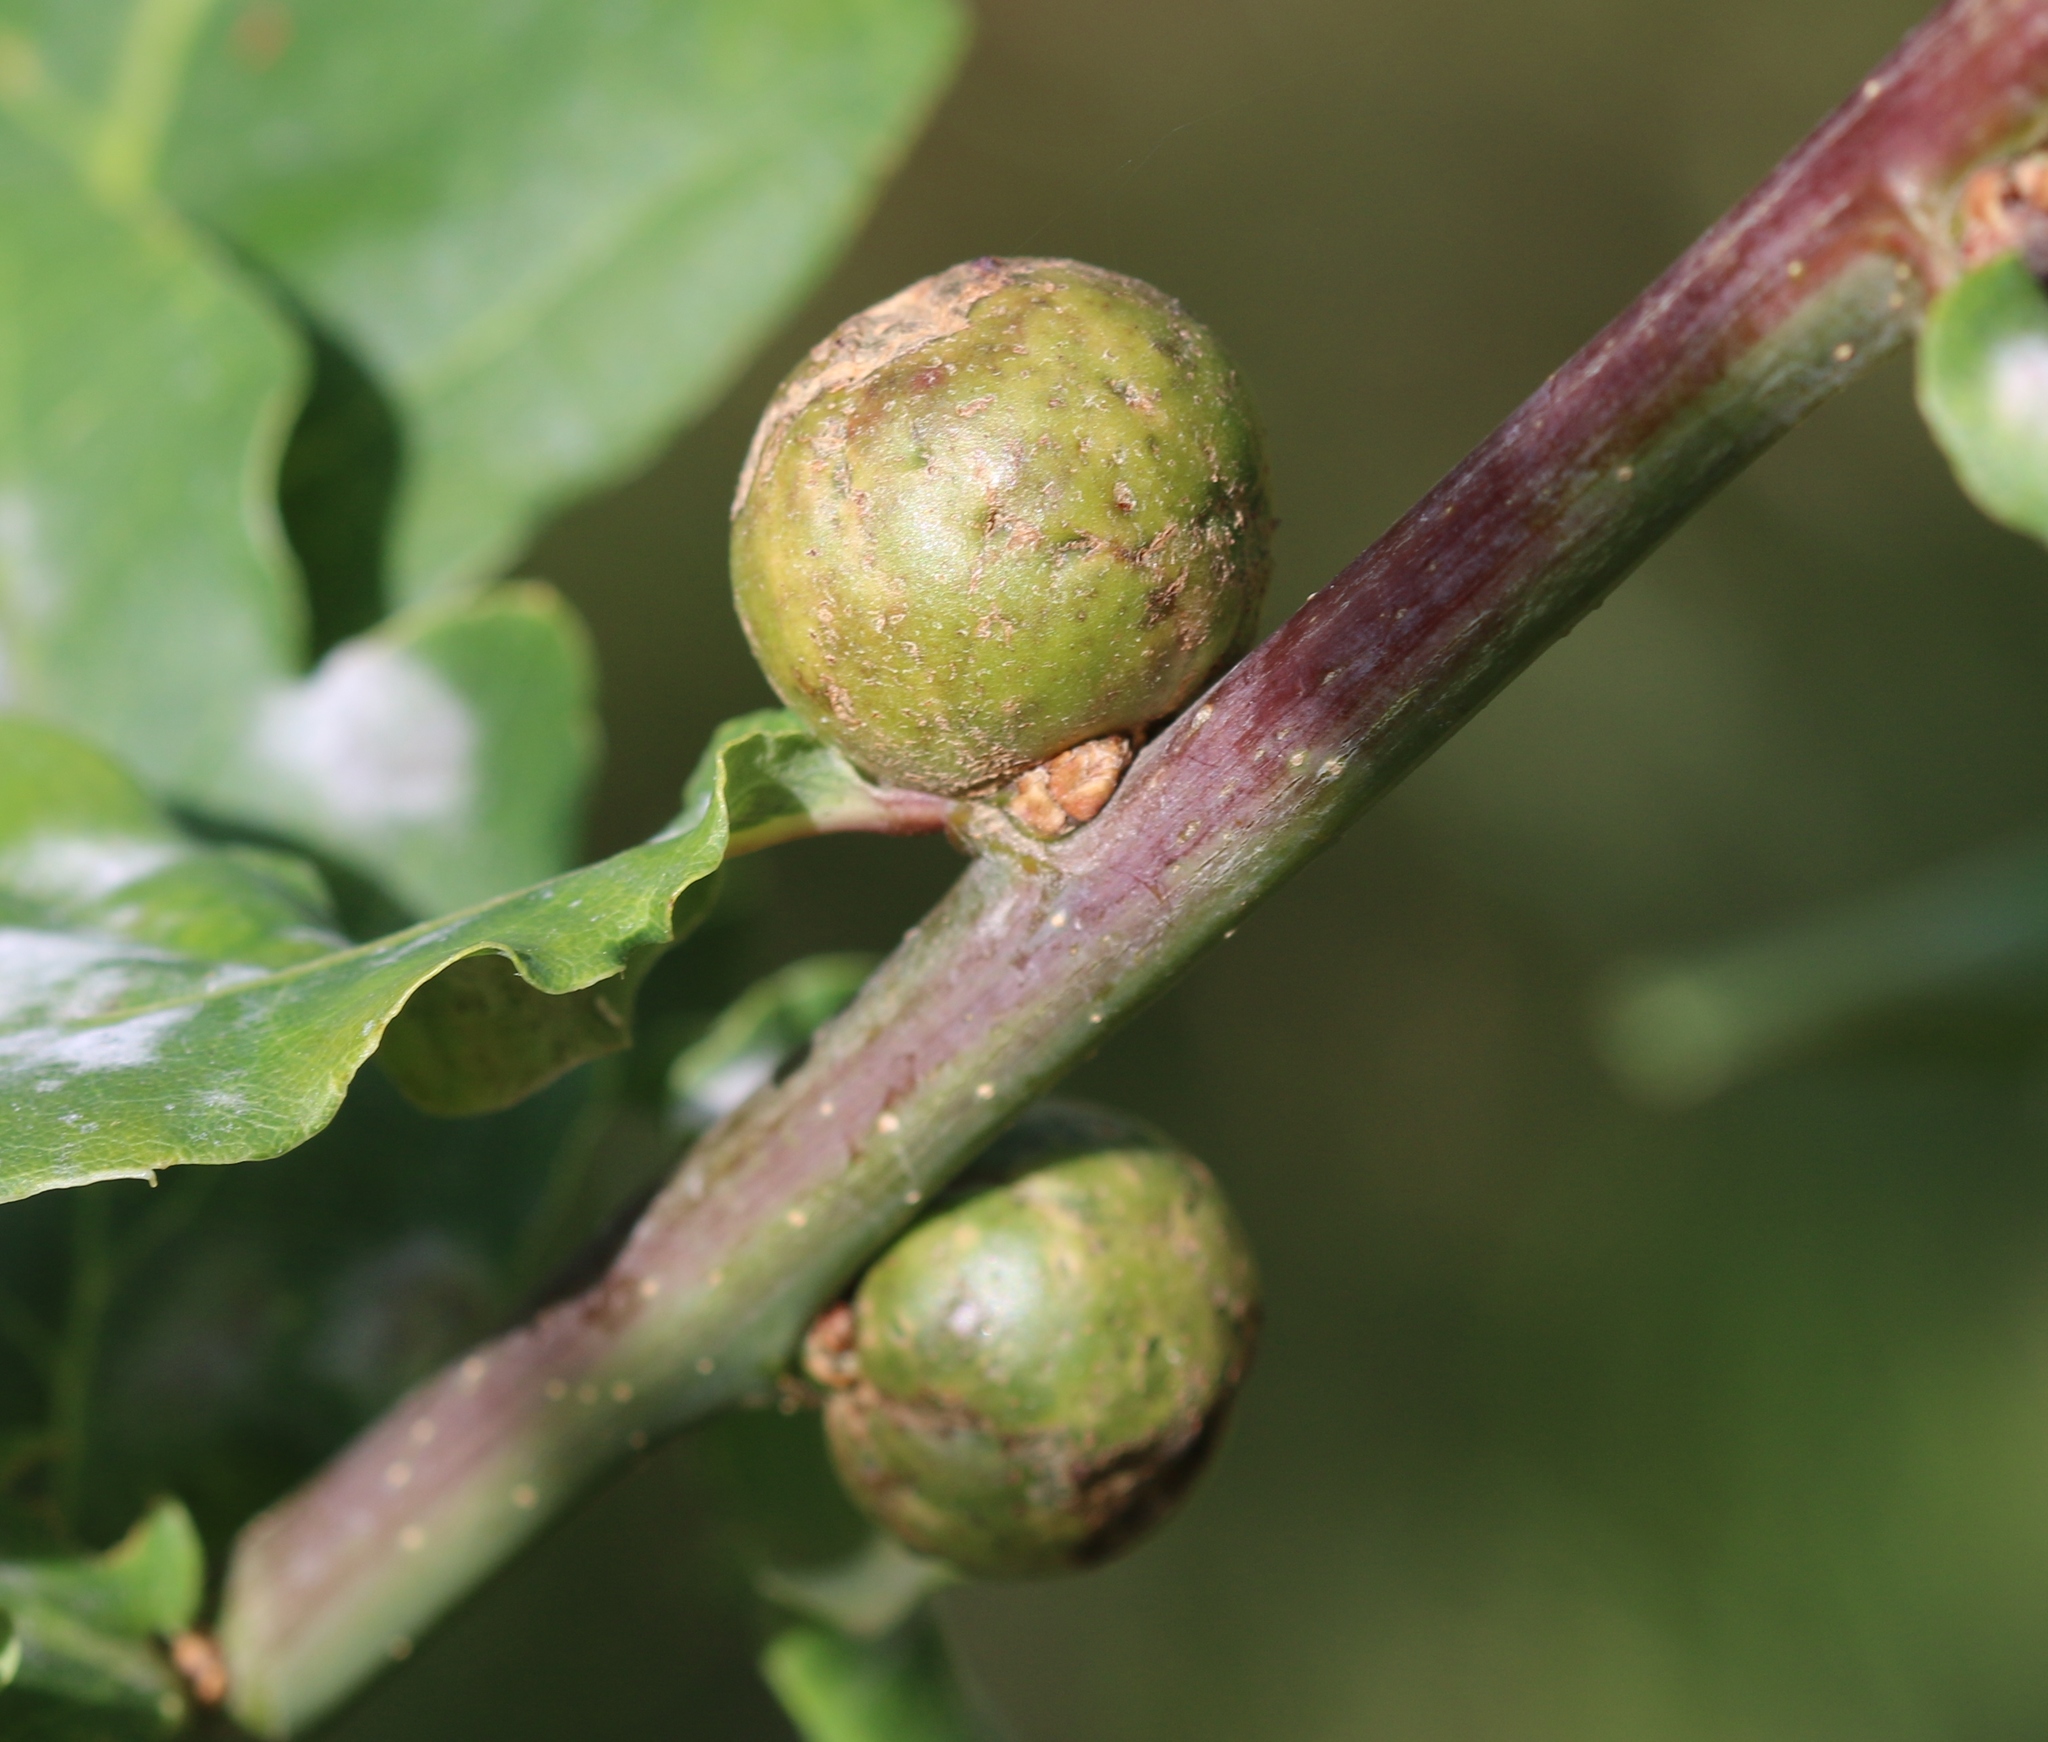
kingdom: Animalia
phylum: Arthropoda
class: Insecta
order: Hymenoptera
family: Cynipidae
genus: Andricus
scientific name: Andricus kollari
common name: Marble gall
